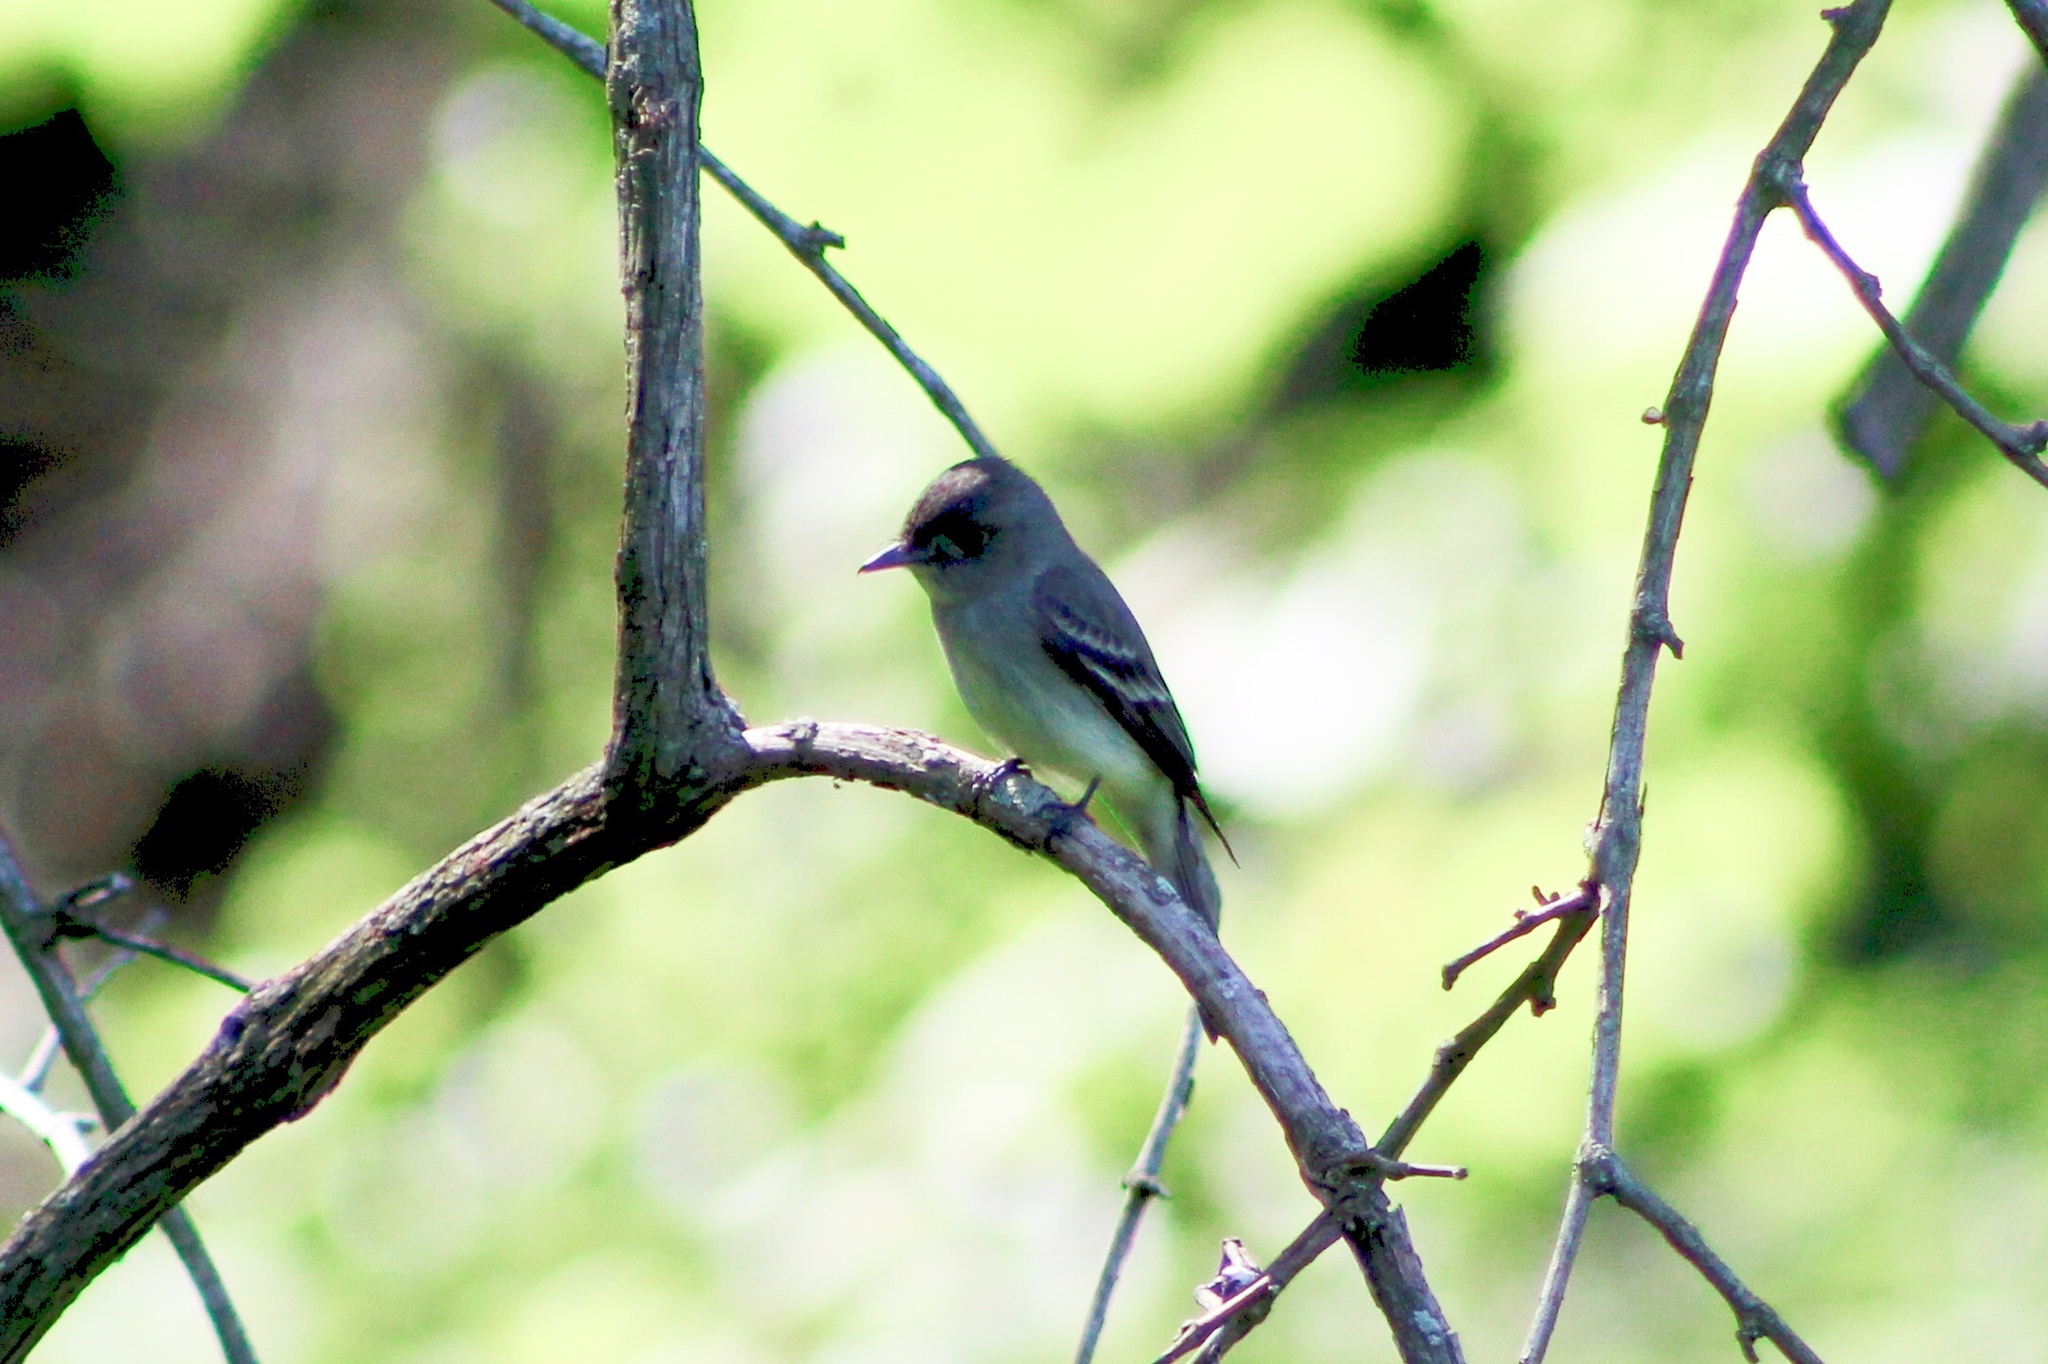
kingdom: Animalia
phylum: Chordata
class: Aves
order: Passeriformes
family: Tyrannidae
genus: Contopus
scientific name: Contopus virens
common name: Eastern wood-pewee
